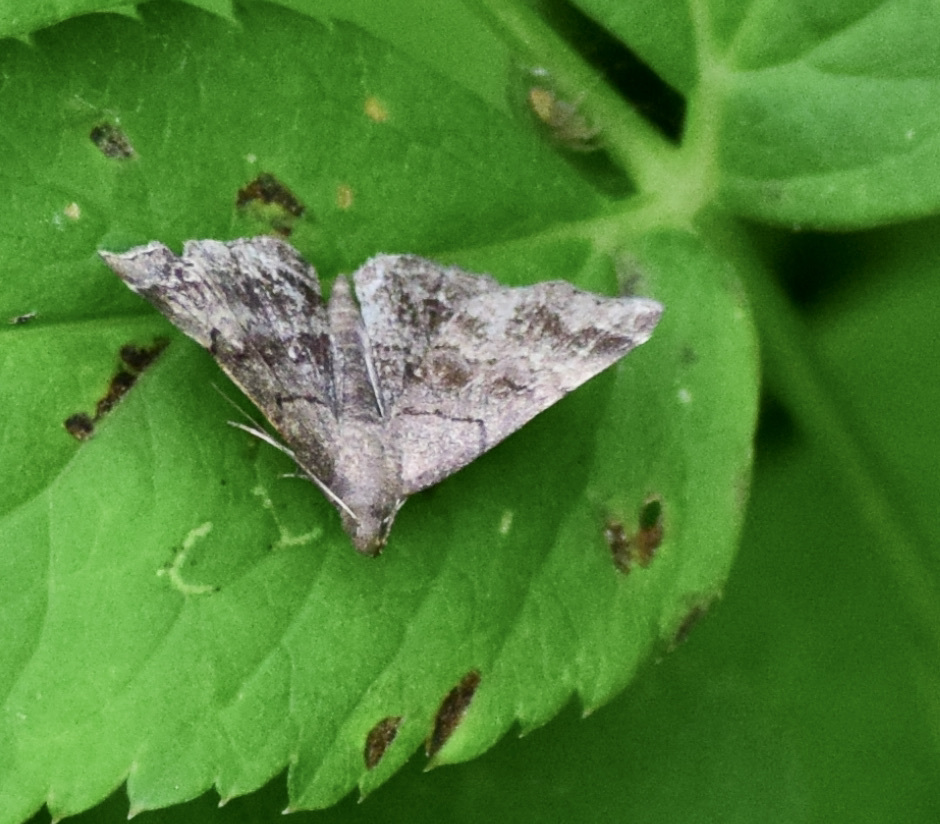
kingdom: Animalia
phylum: Arthropoda
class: Insecta
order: Lepidoptera
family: Erebidae
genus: Phalaenostola
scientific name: Phalaenostola larentioides
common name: Black-banded owlet
